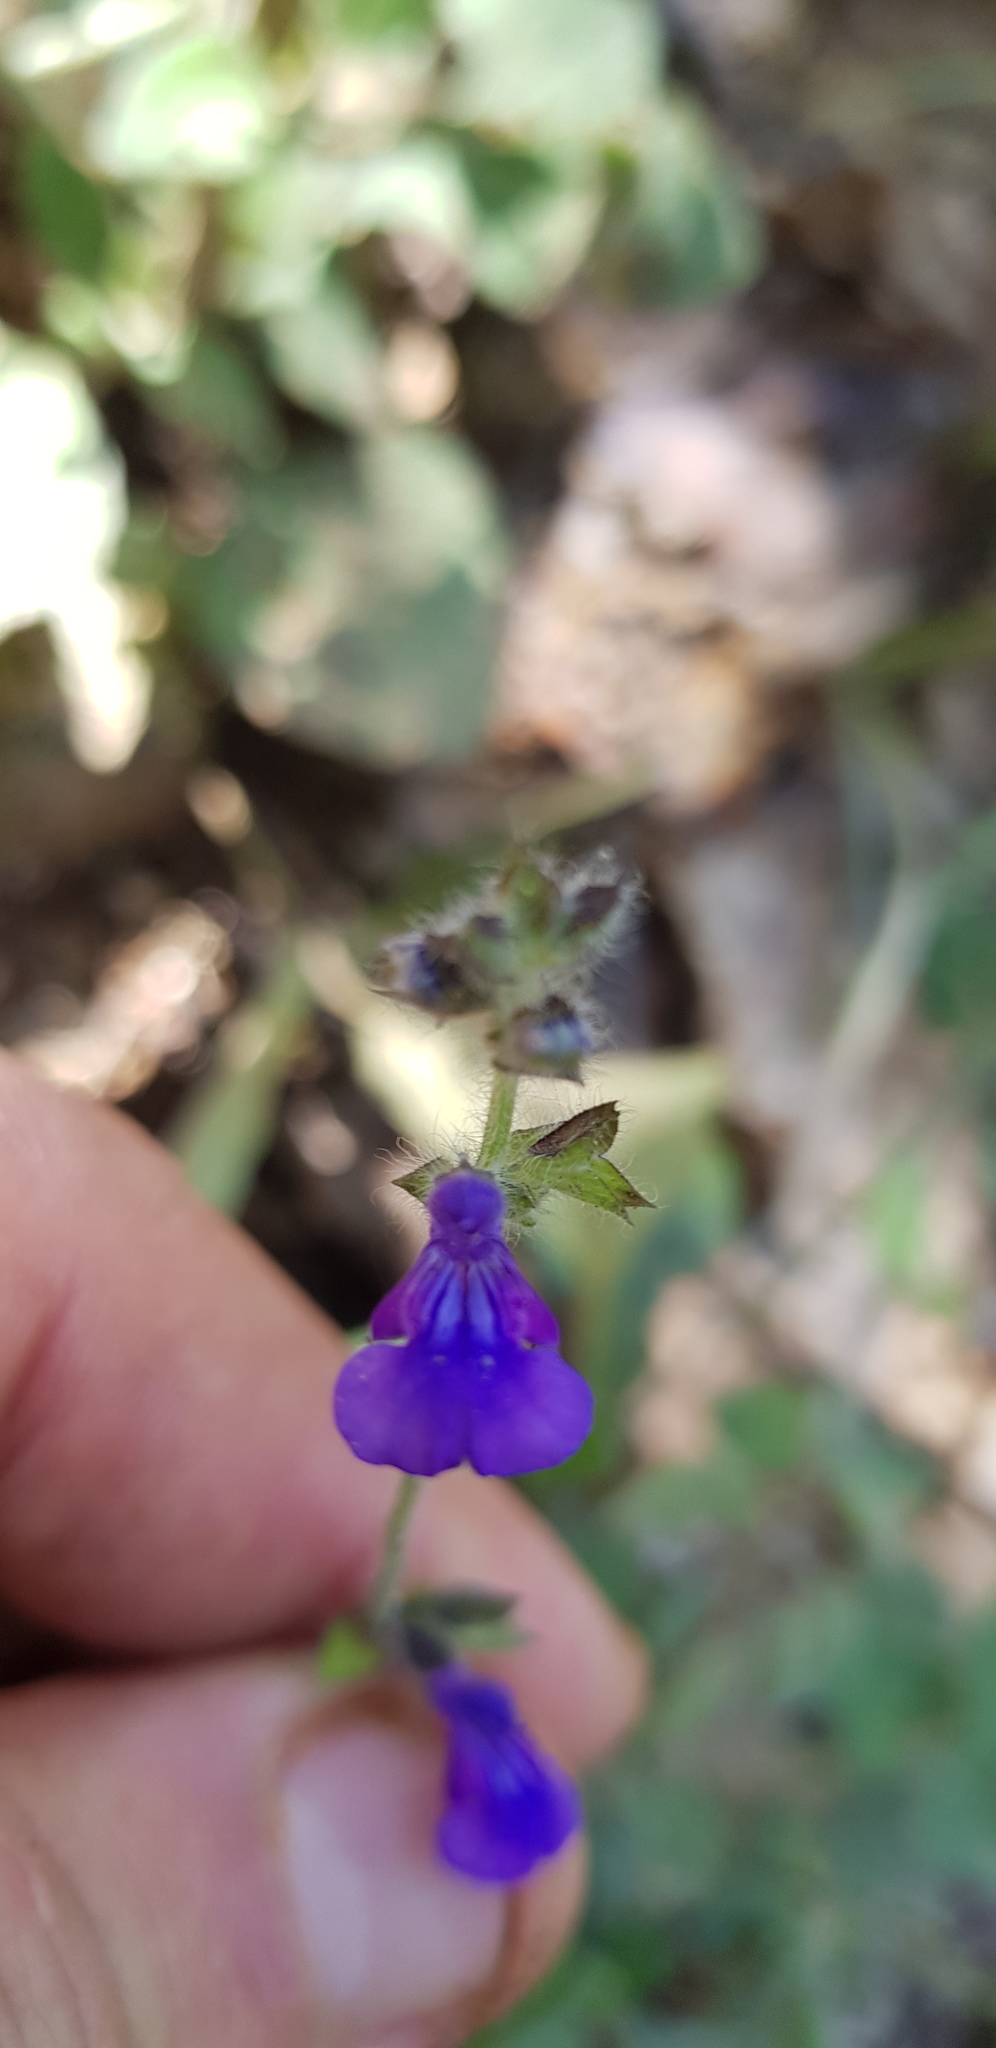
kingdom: Plantae
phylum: Tracheophyta
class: Magnoliopsida
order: Lamiales
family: Lamiaceae
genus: Salvia
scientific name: Salvia misella
